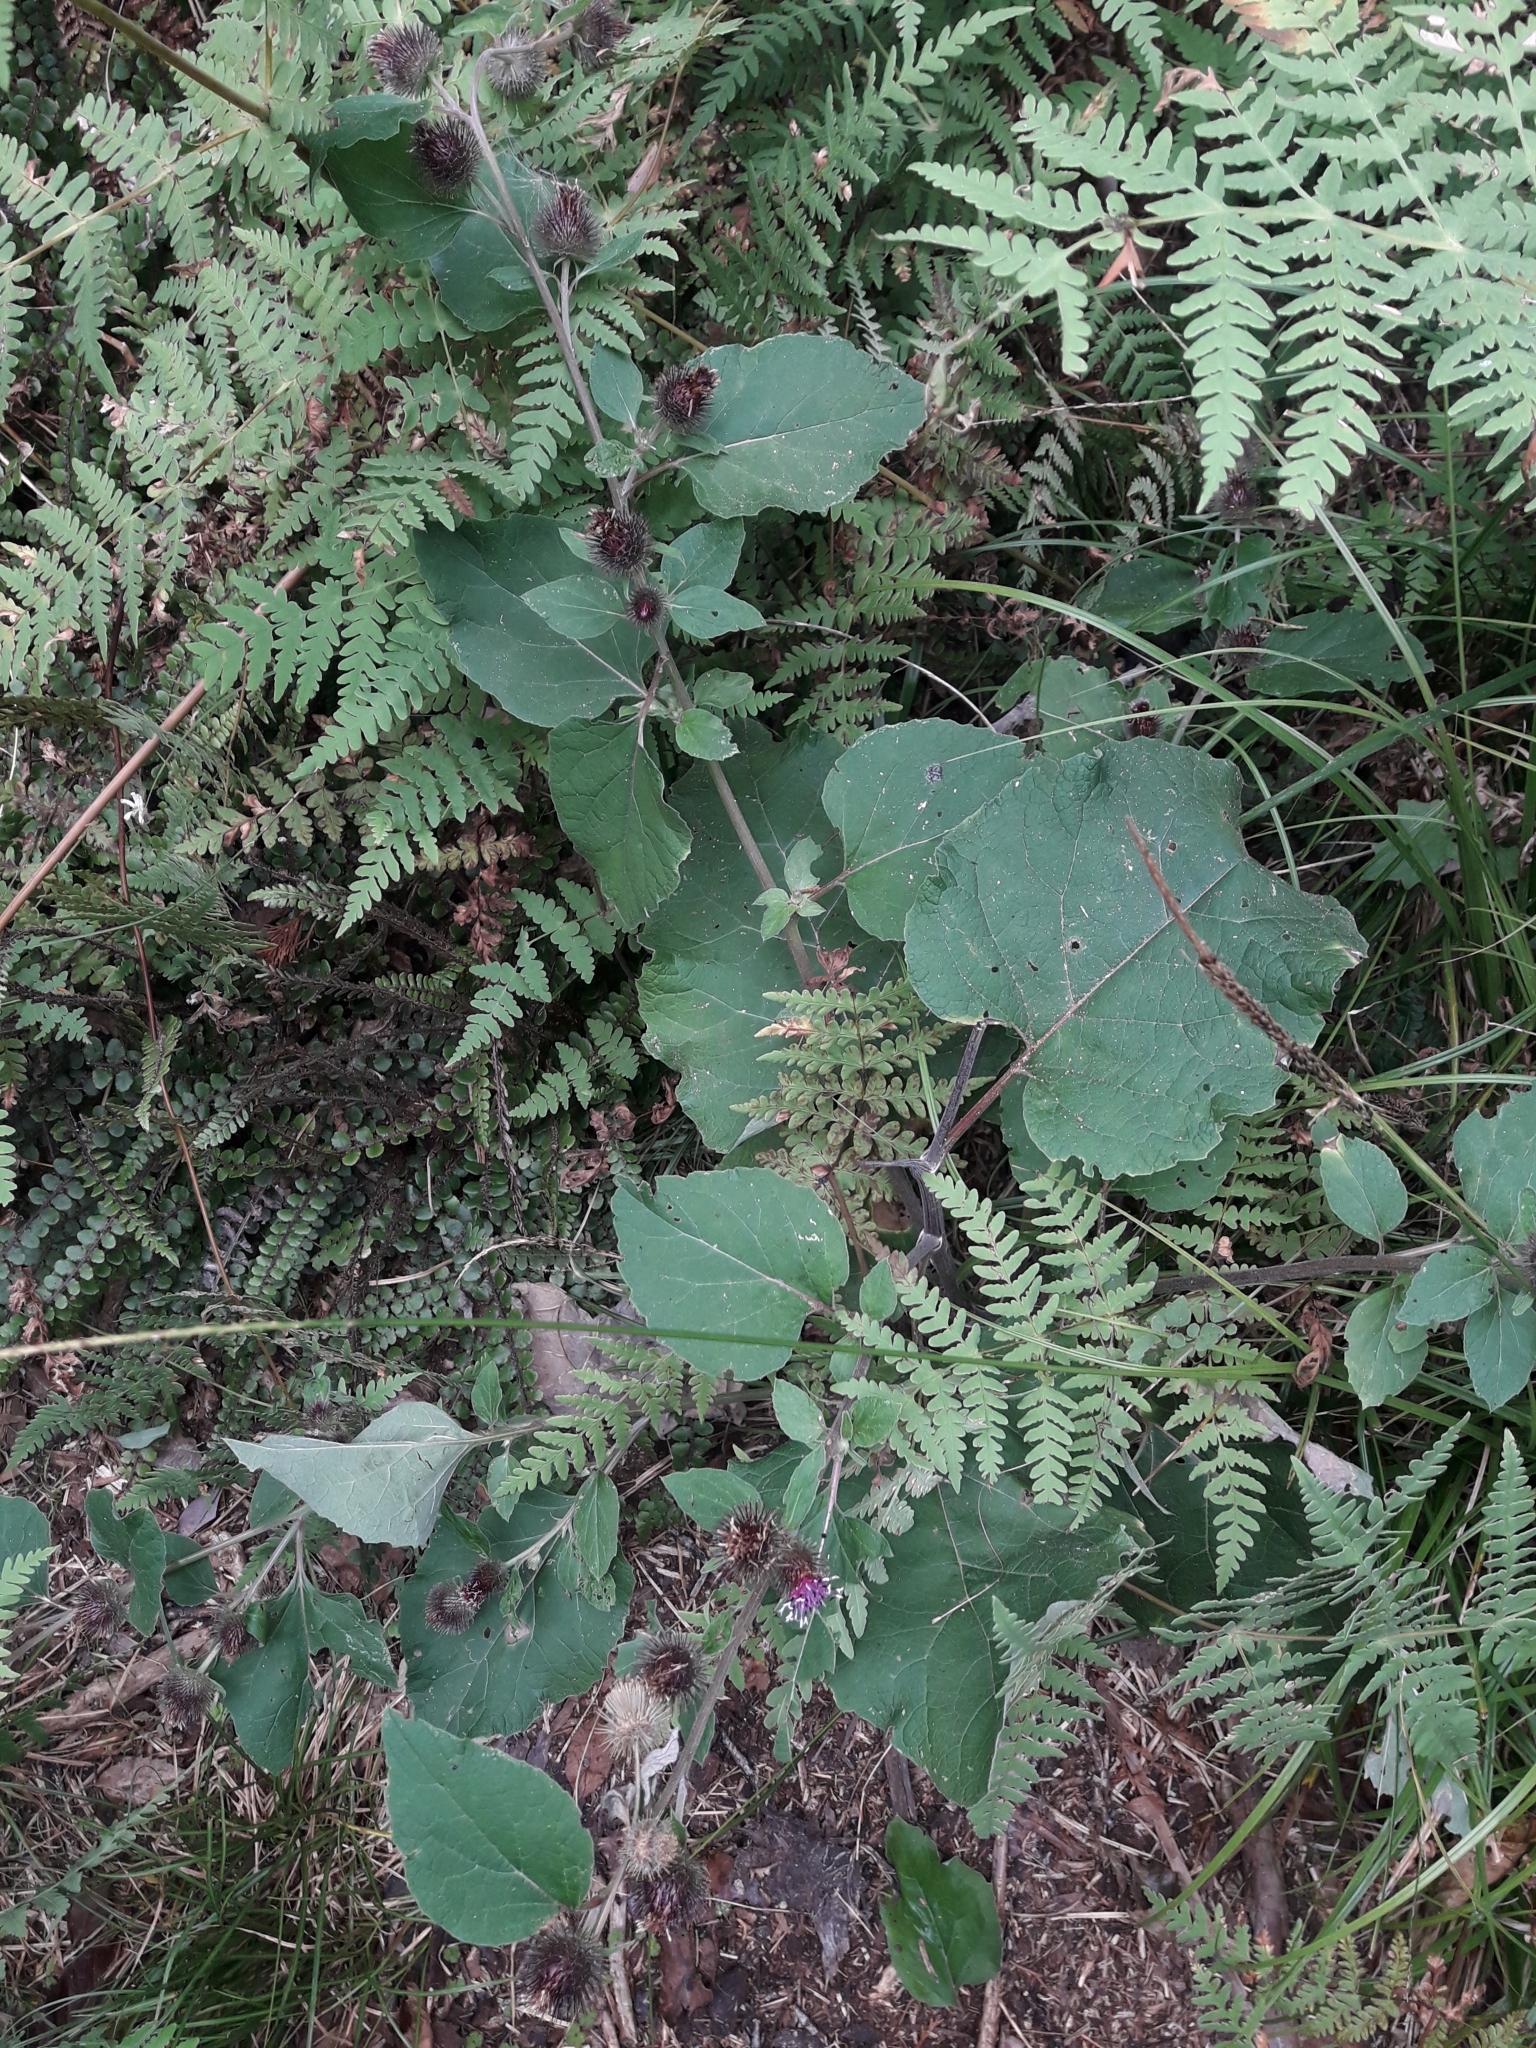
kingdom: Plantae
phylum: Tracheophyta
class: Magnoliopsida
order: Asterales
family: Asteraceae
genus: Arctium
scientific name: Arctium minus
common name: Lesser burdock
